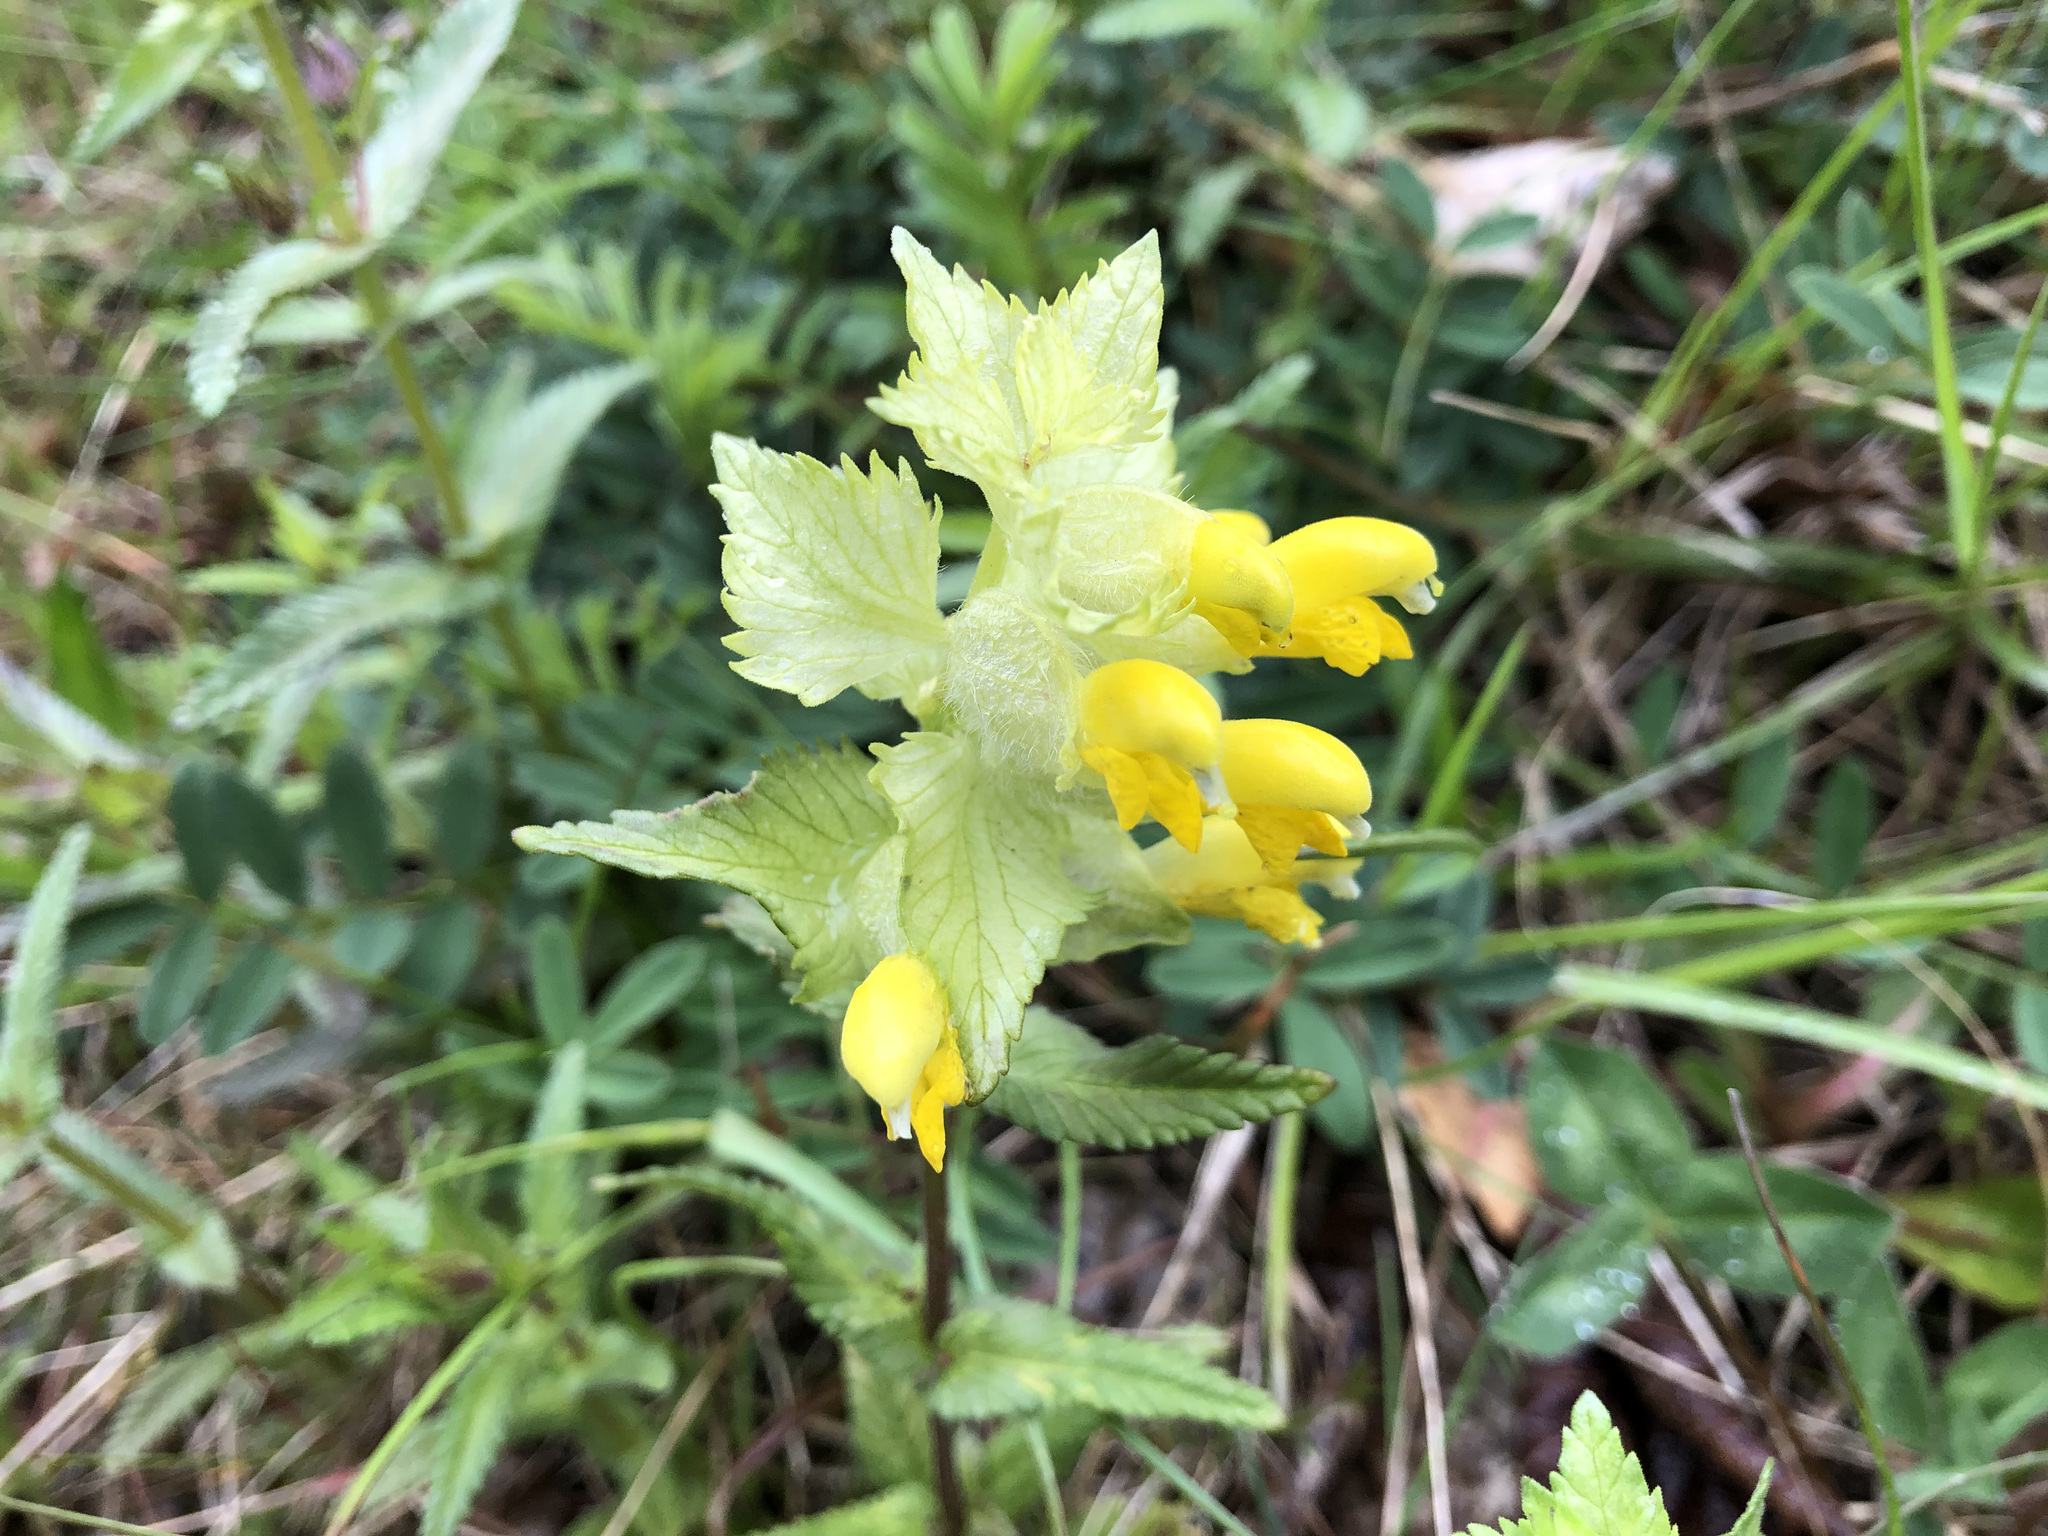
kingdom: Plantae
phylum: Tracheophyta
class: Magnoliopsida
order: Lamiales
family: Orobanchaceae
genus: Rhinanthus
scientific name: Rhinanthus alectorolophus
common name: Greater yellow-rattle
